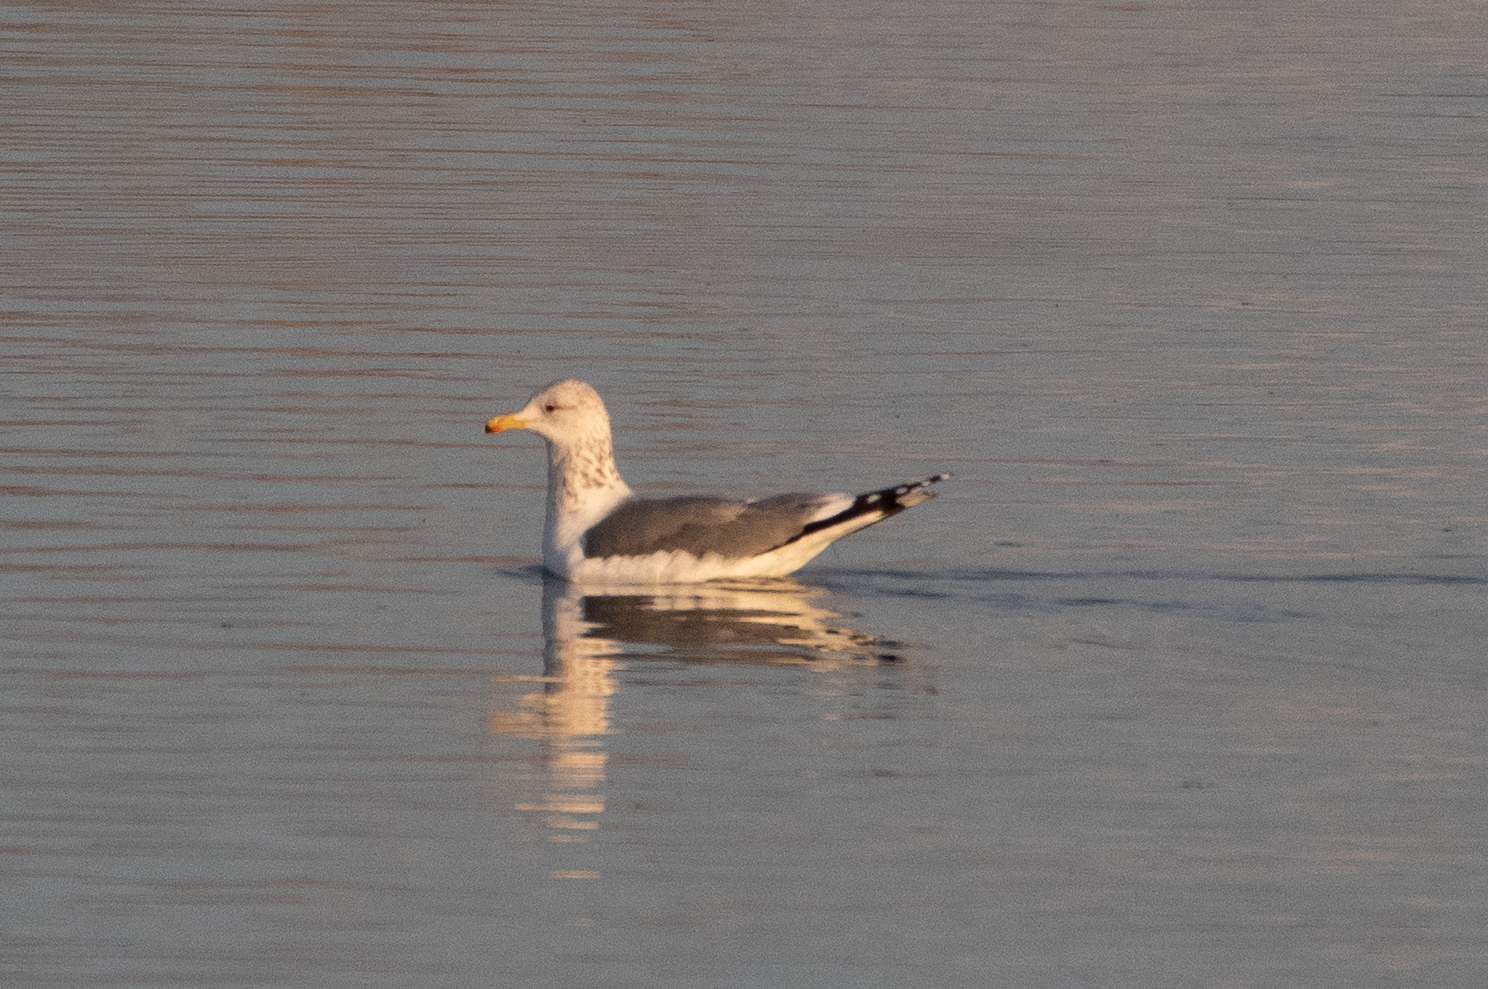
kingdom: Animalia
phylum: Chordata
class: Aves
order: Charadriiformes
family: Laridae
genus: Larus
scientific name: Larus californicus
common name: California gull
